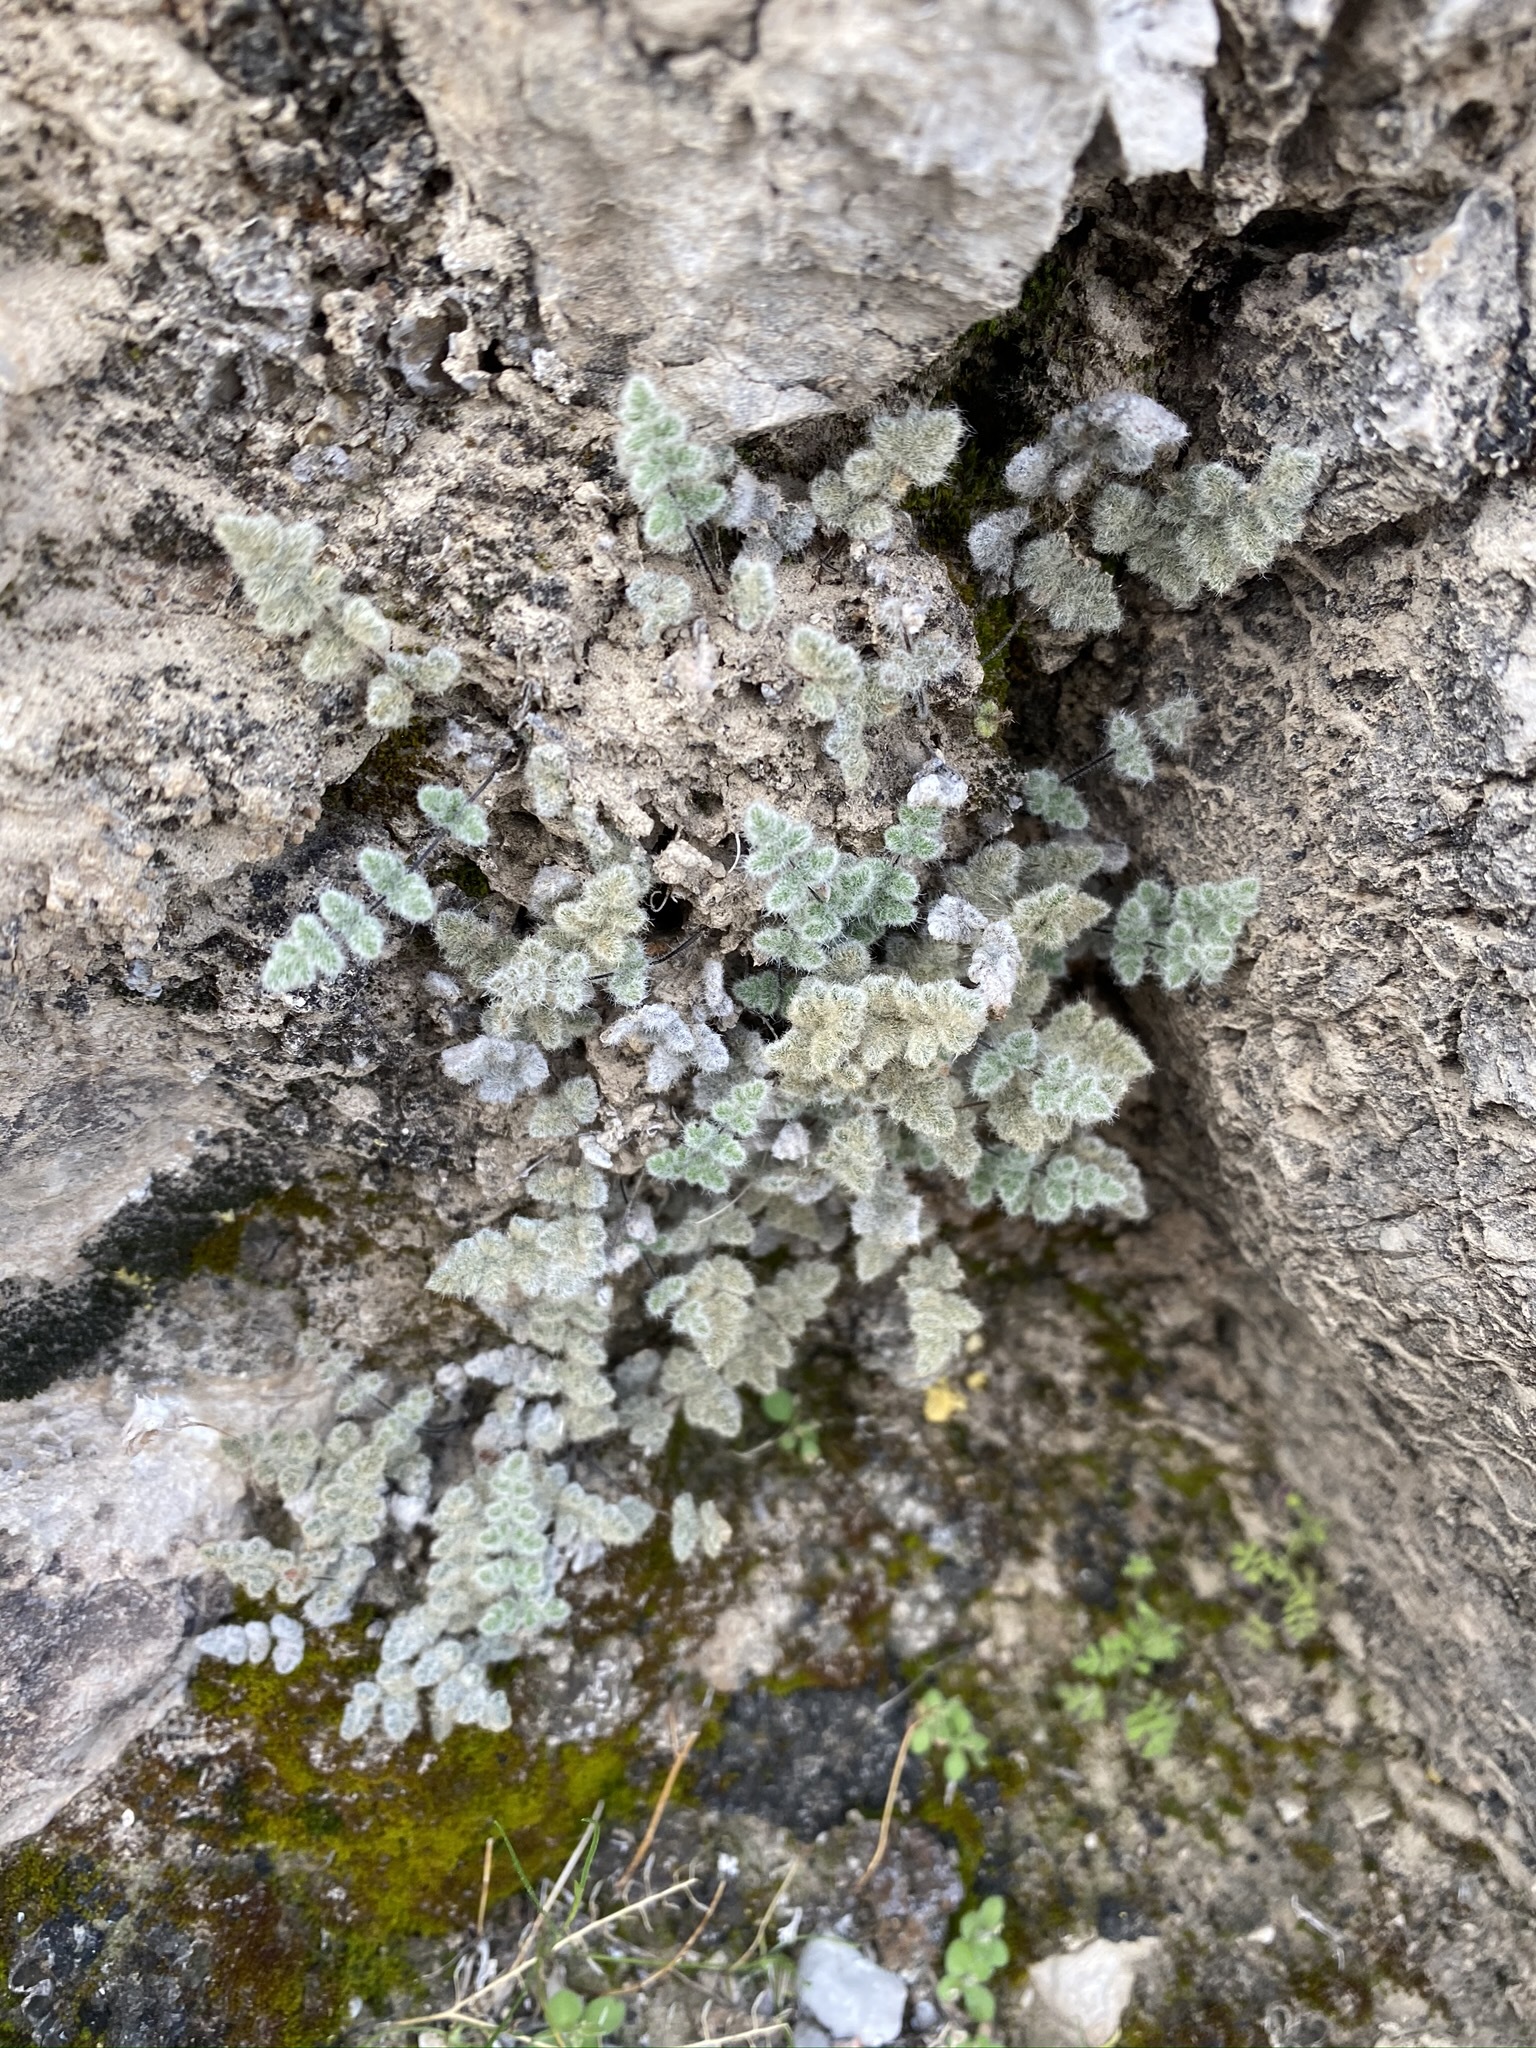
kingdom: Plantae
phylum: Tracheophyta
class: Polypodiopsida
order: Polypodiales
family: Pteridaceae
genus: Myriopteris
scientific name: Myriopteris parryi
